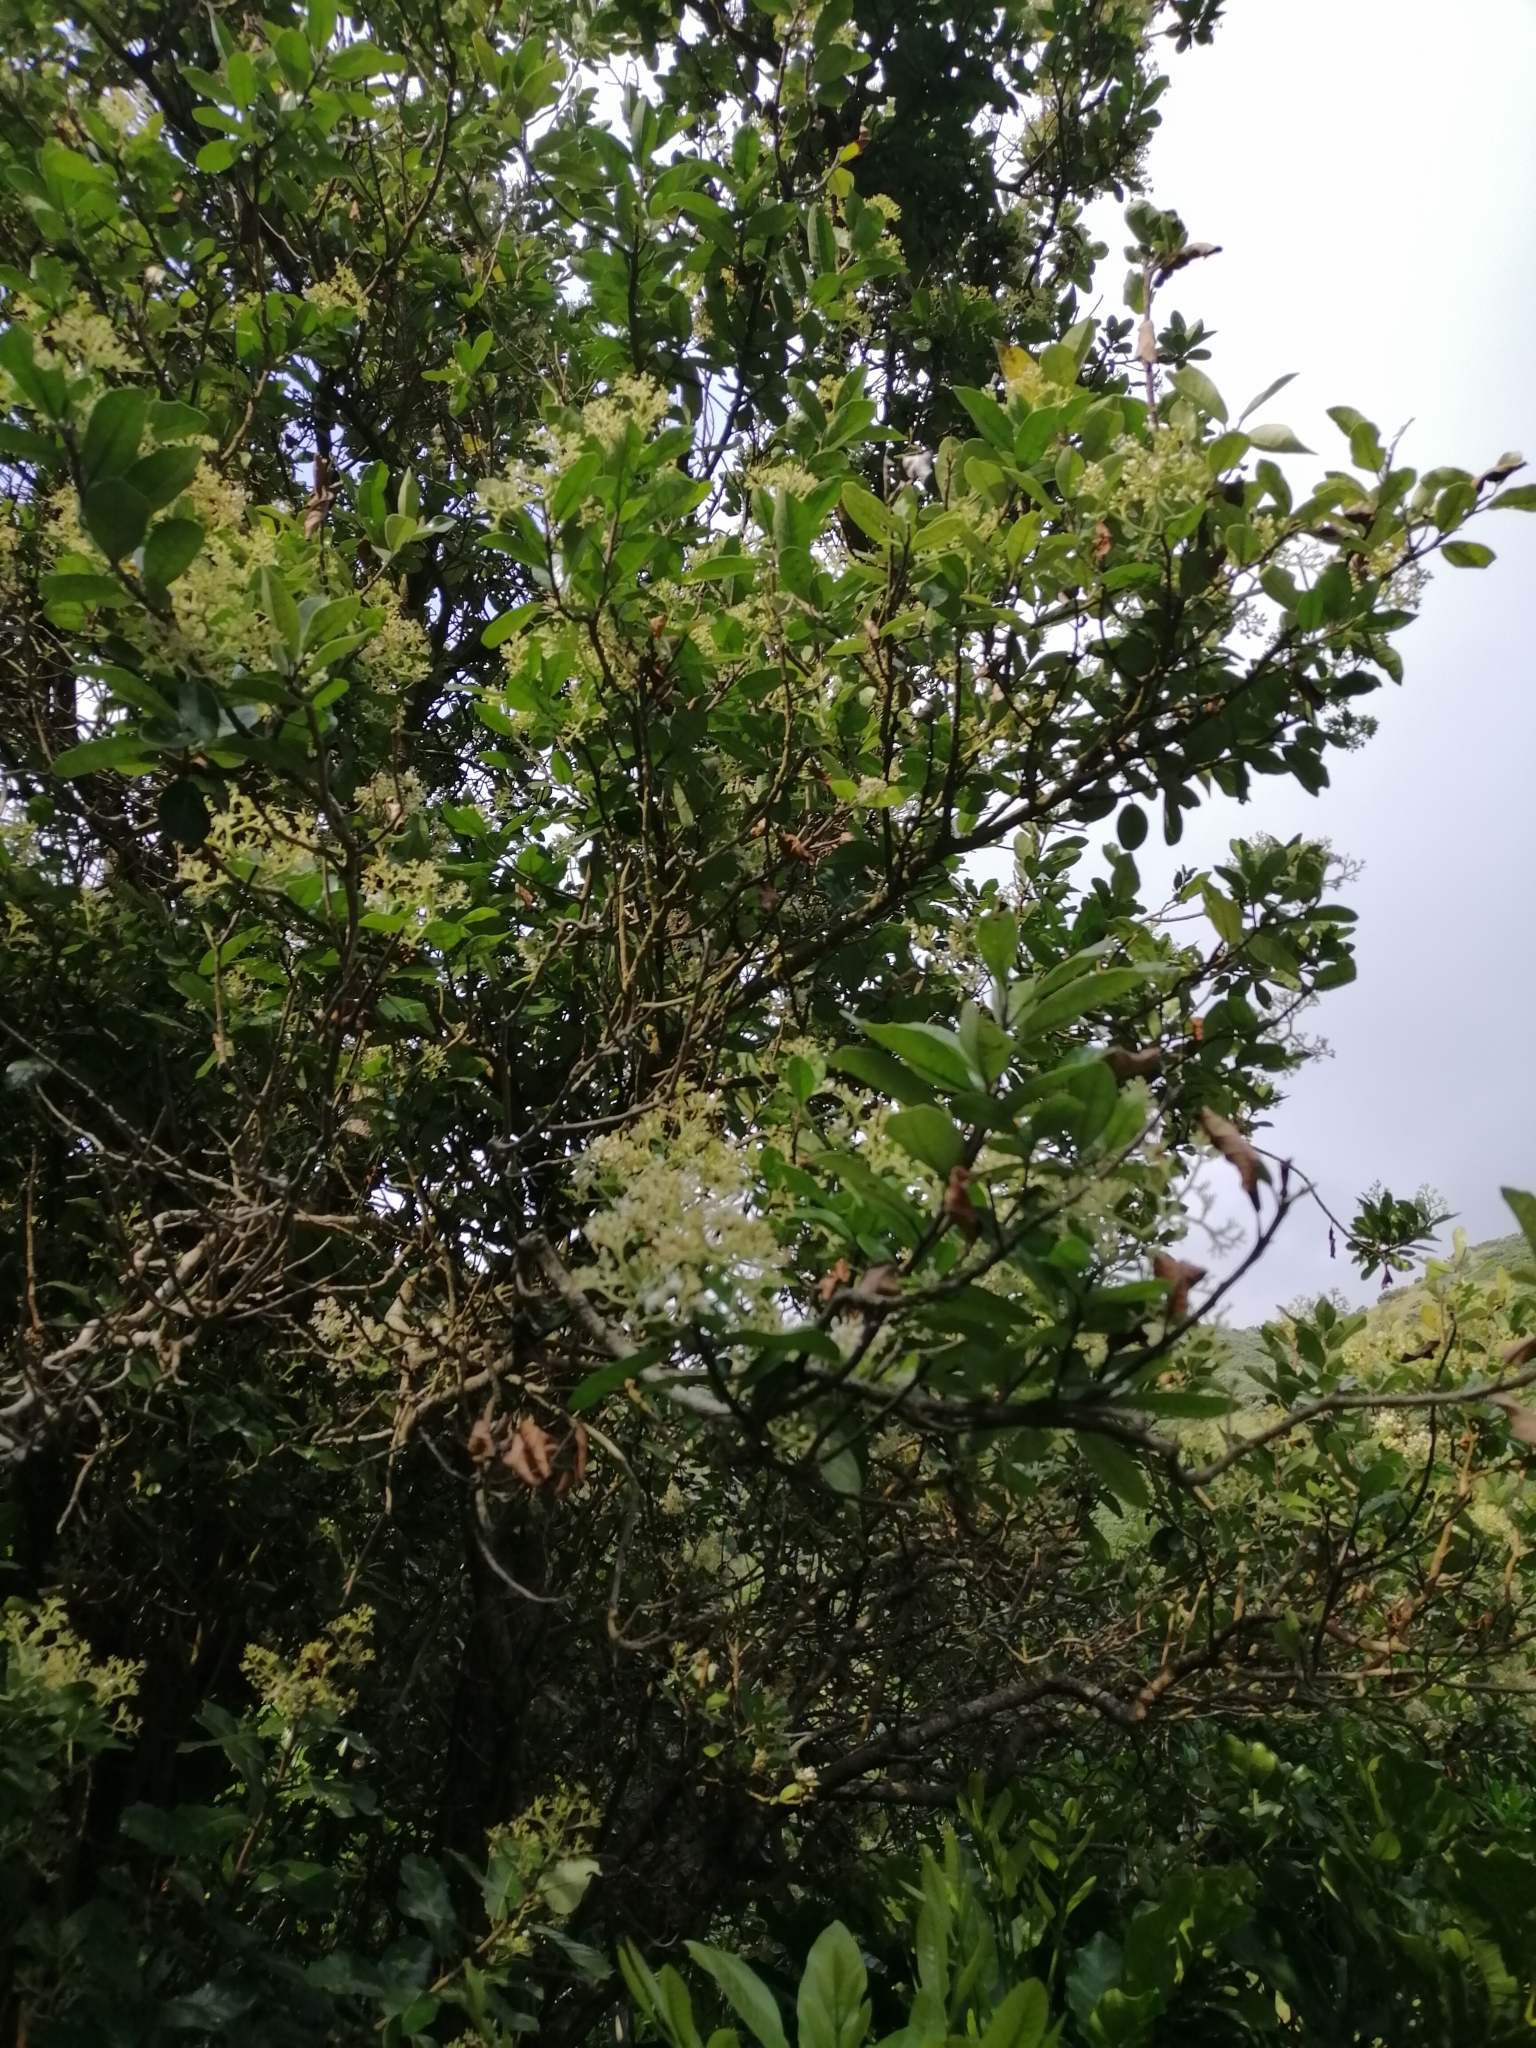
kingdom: Plantae
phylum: Tracheophyta
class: Magnoliopsida
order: Apiales
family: Pennantiaceae
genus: Pennantia
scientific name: Pennantia corymbosa
